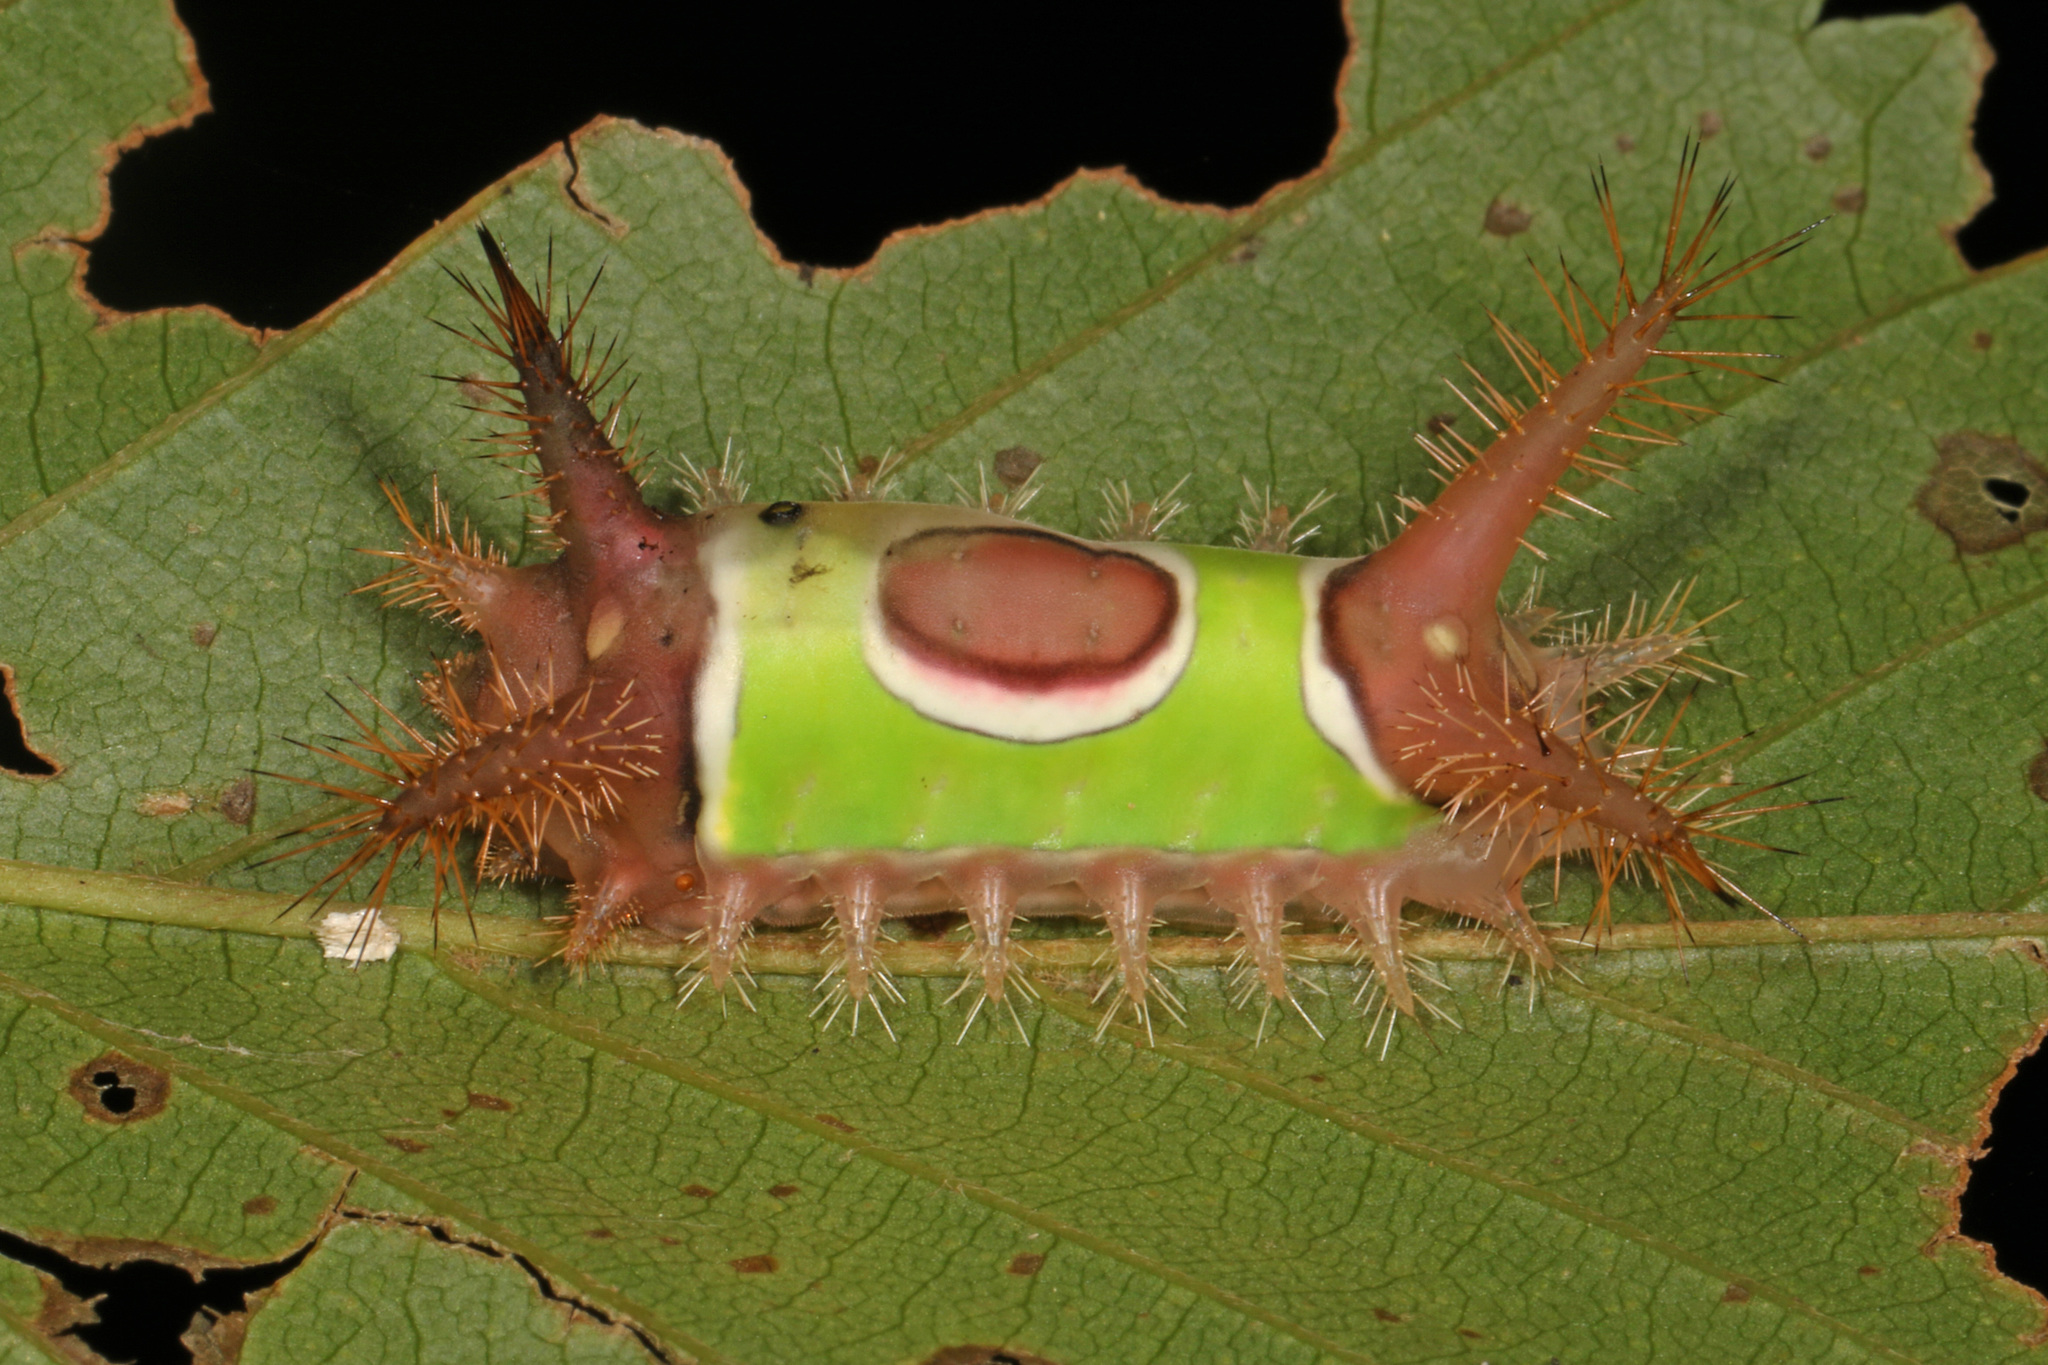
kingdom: Animalia
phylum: Arthropoda
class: Insecta
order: Lepidoptera
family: Limacodidae
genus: Acharia
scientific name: Acharia stimulea
